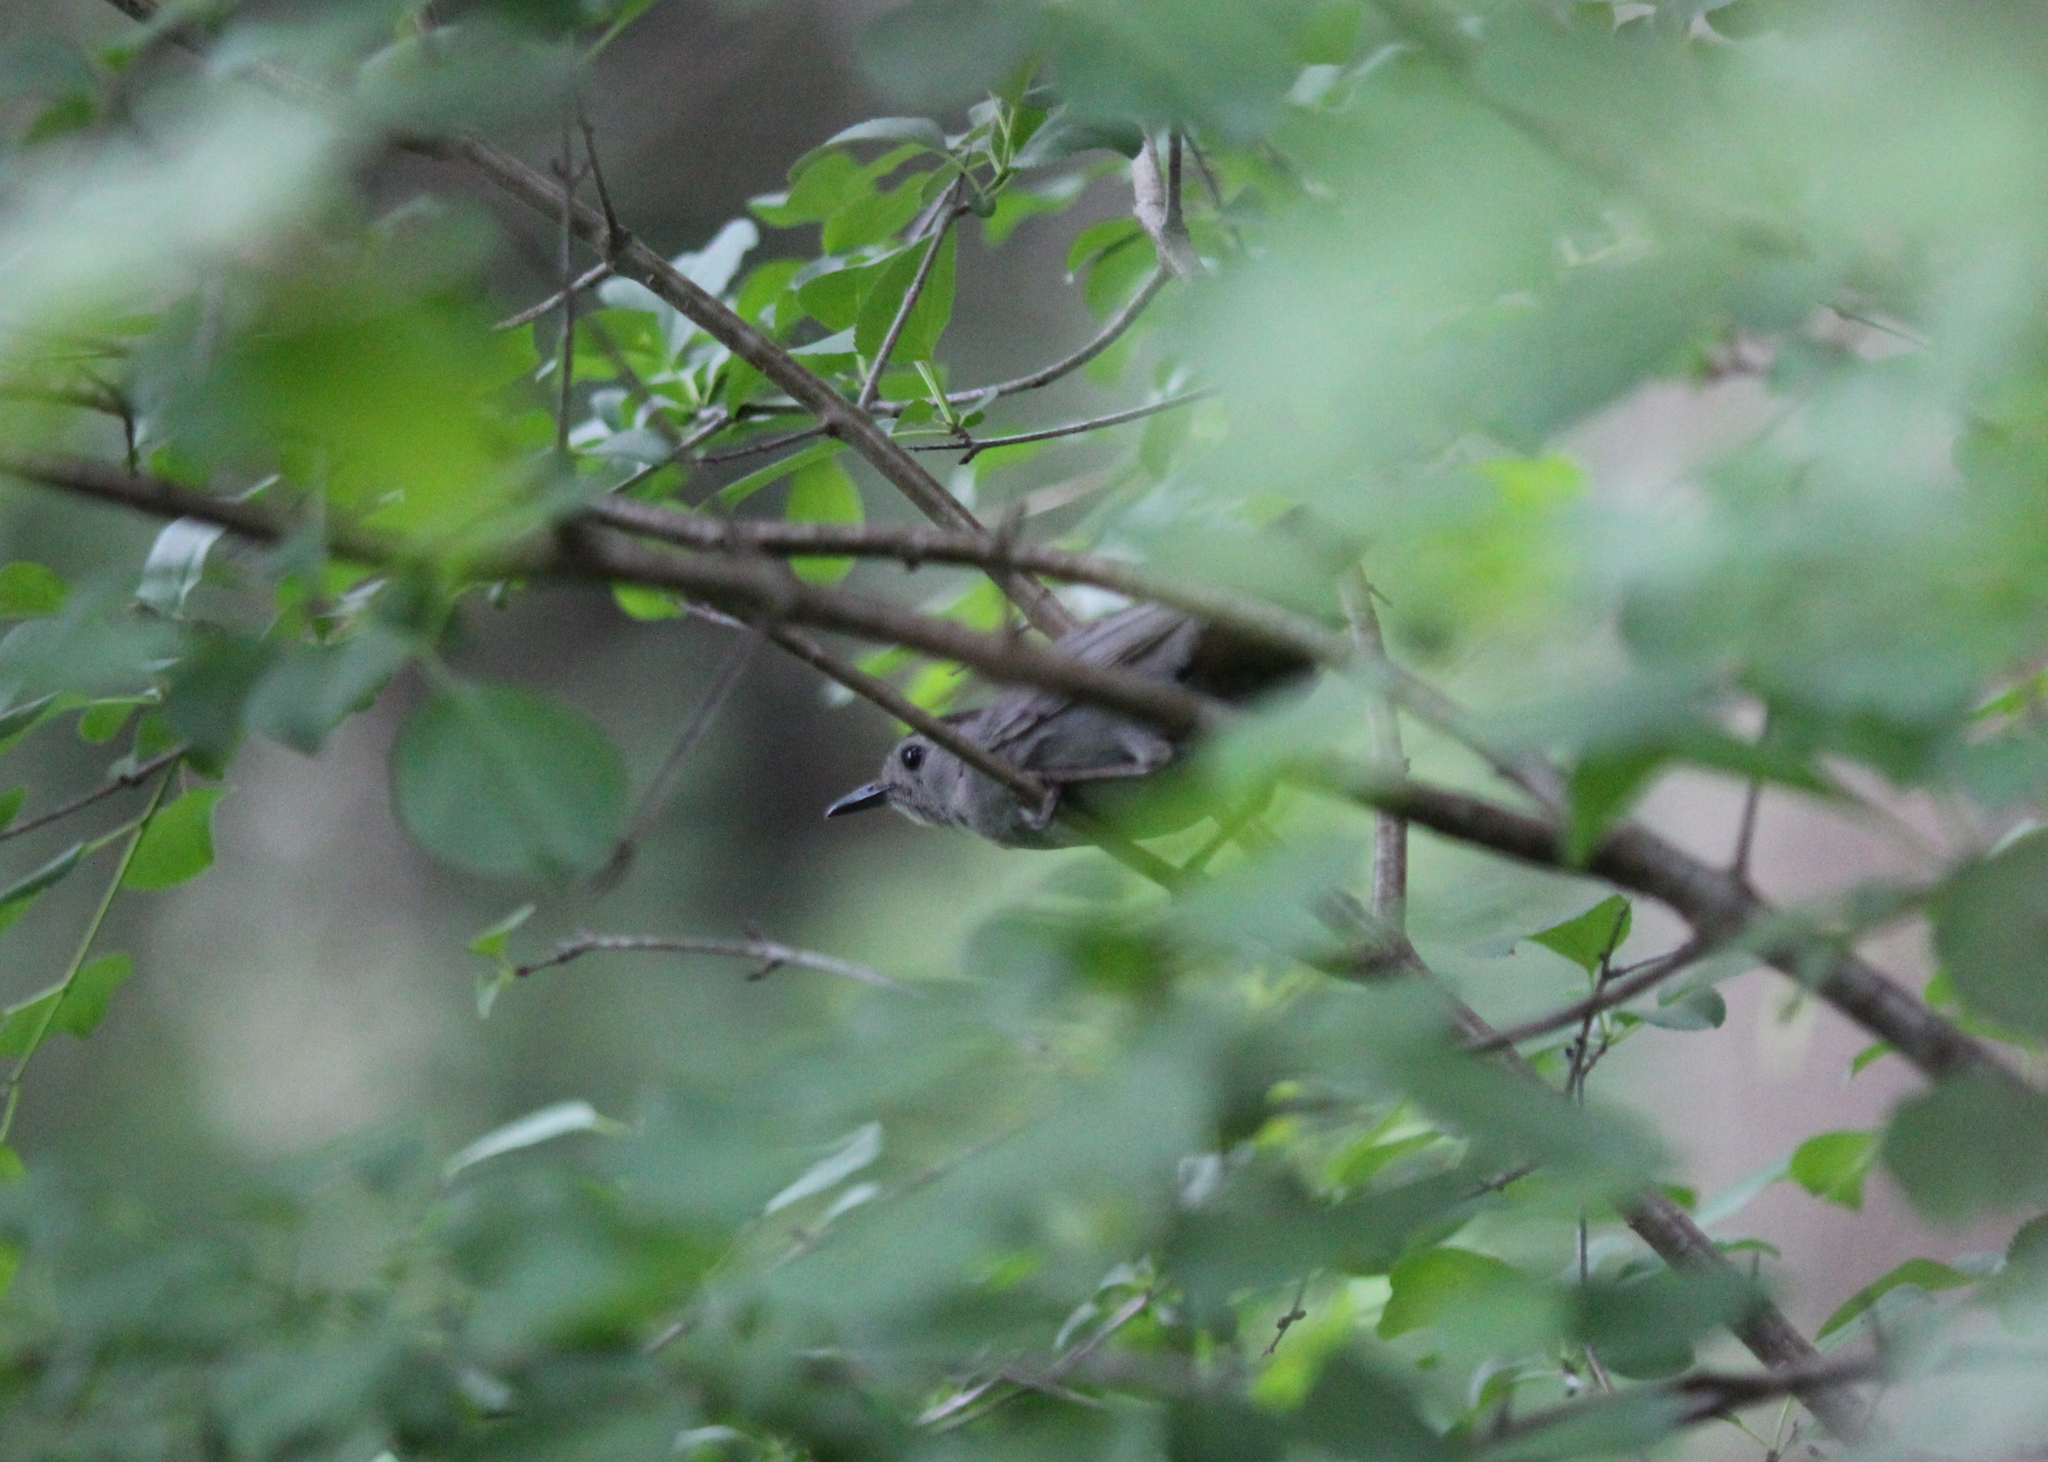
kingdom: Animalia
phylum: Chordata
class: Aves
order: Passeriformes
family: Mimidae
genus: Dumetella
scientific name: Dumetella carolinensis
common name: Gray catbird
